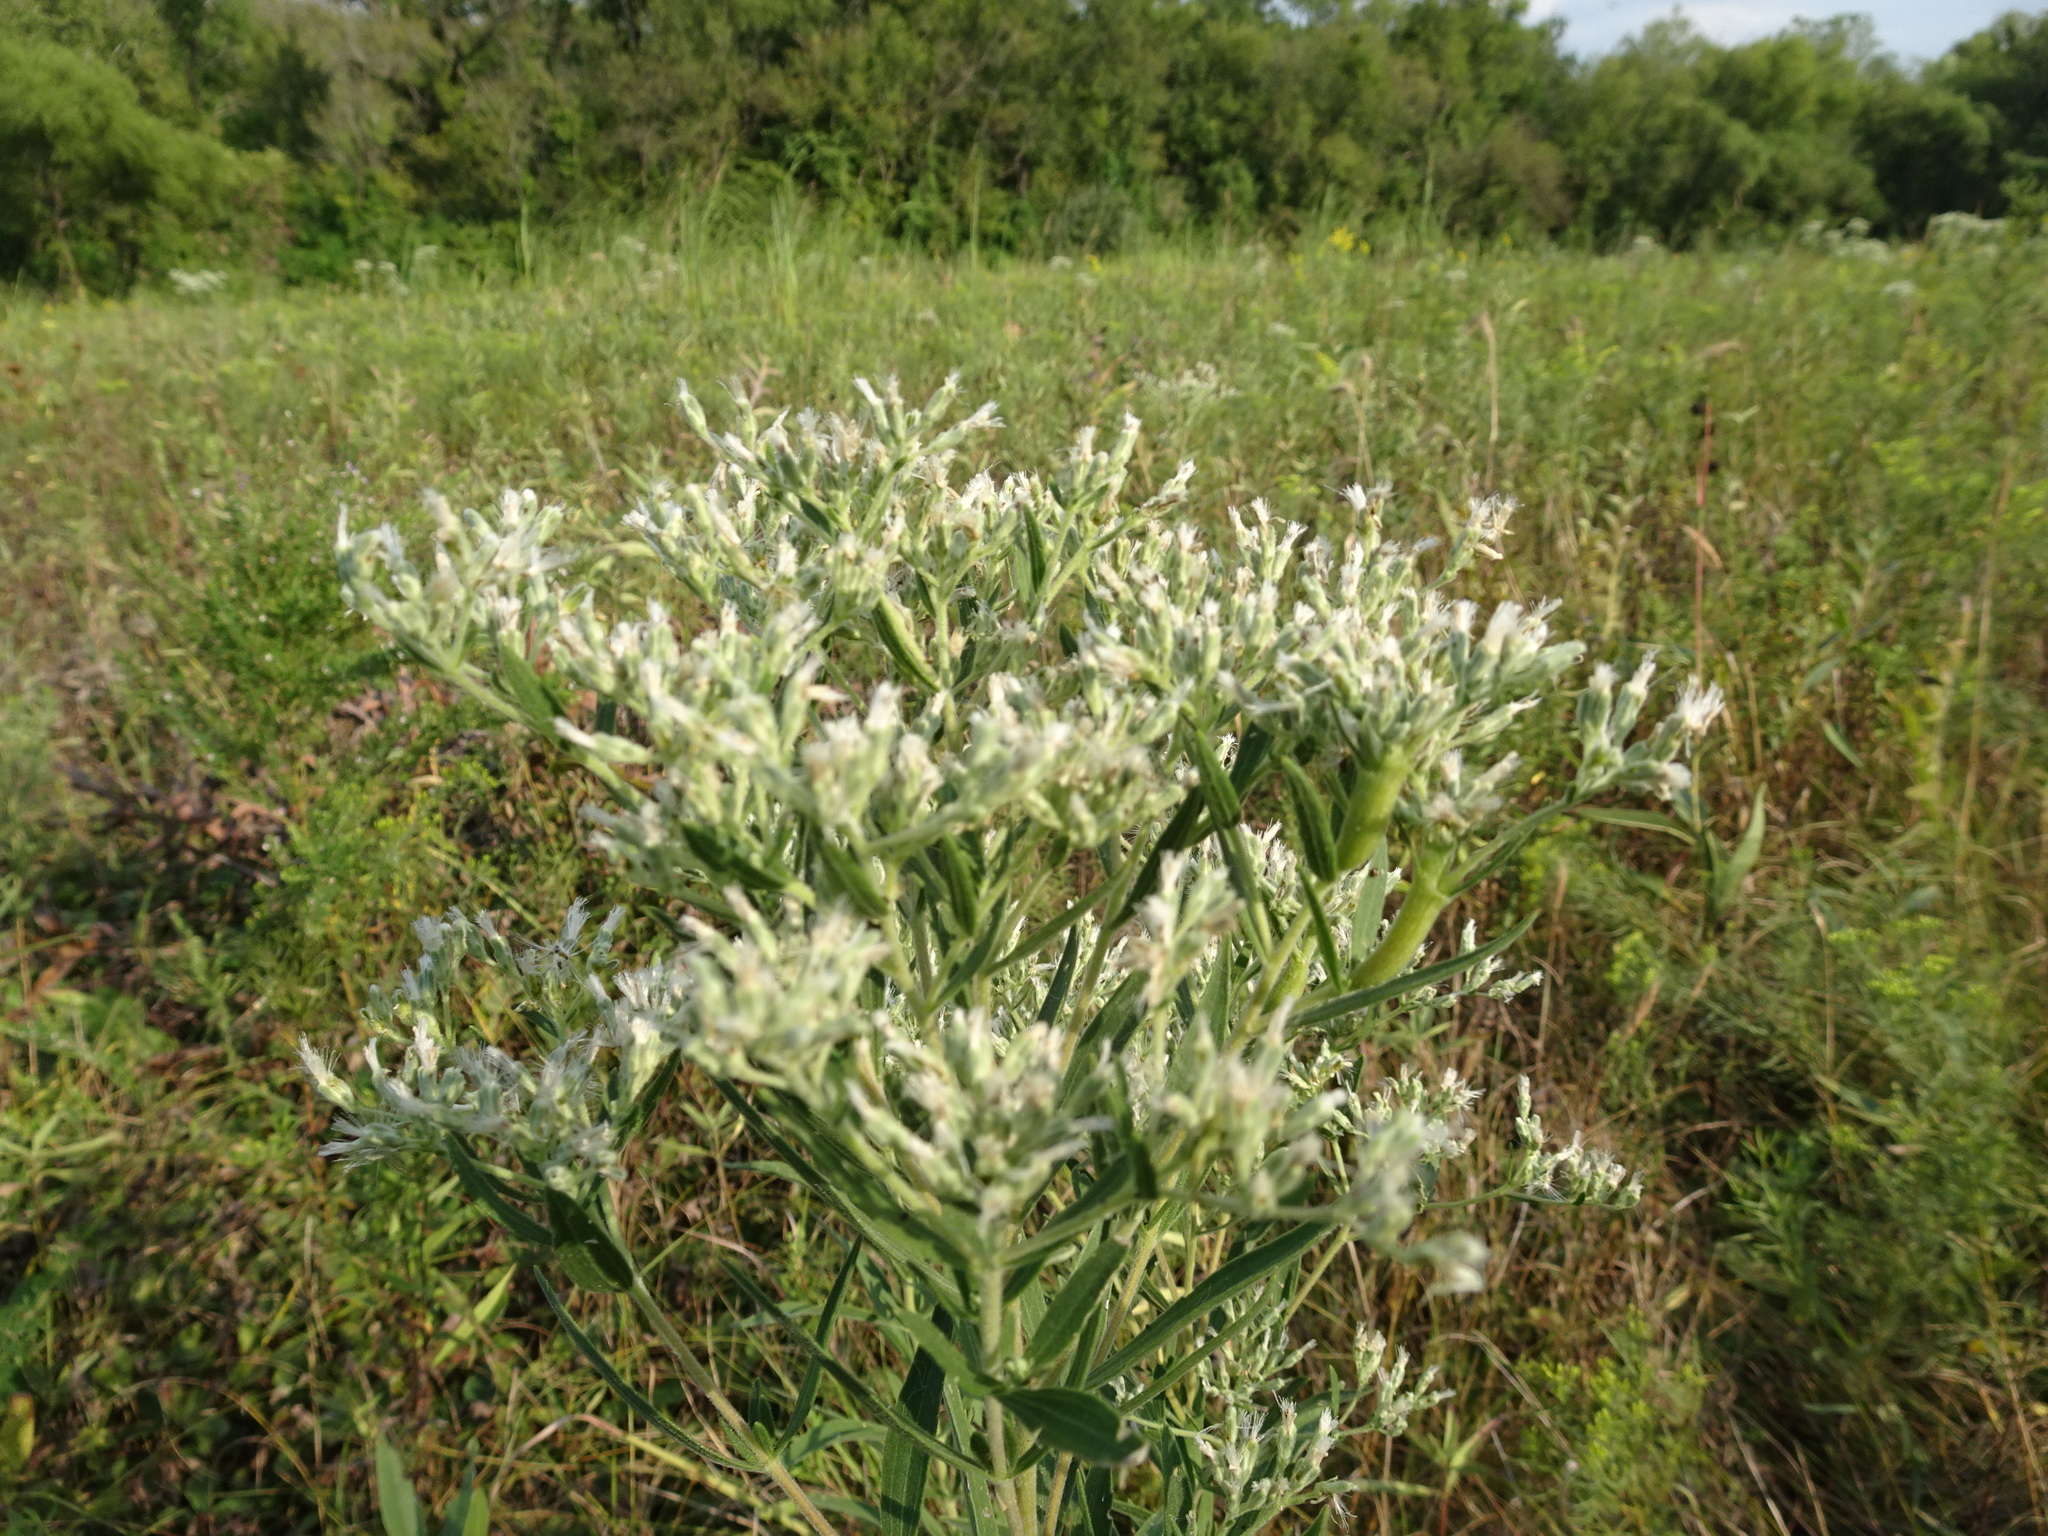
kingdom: Plantae
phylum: Tracheophyta
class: Magnoliopsida
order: Asterales
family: Asteraceae
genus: Eupatorium
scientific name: Eupatorium altissimum
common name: Tall thoroughwort
